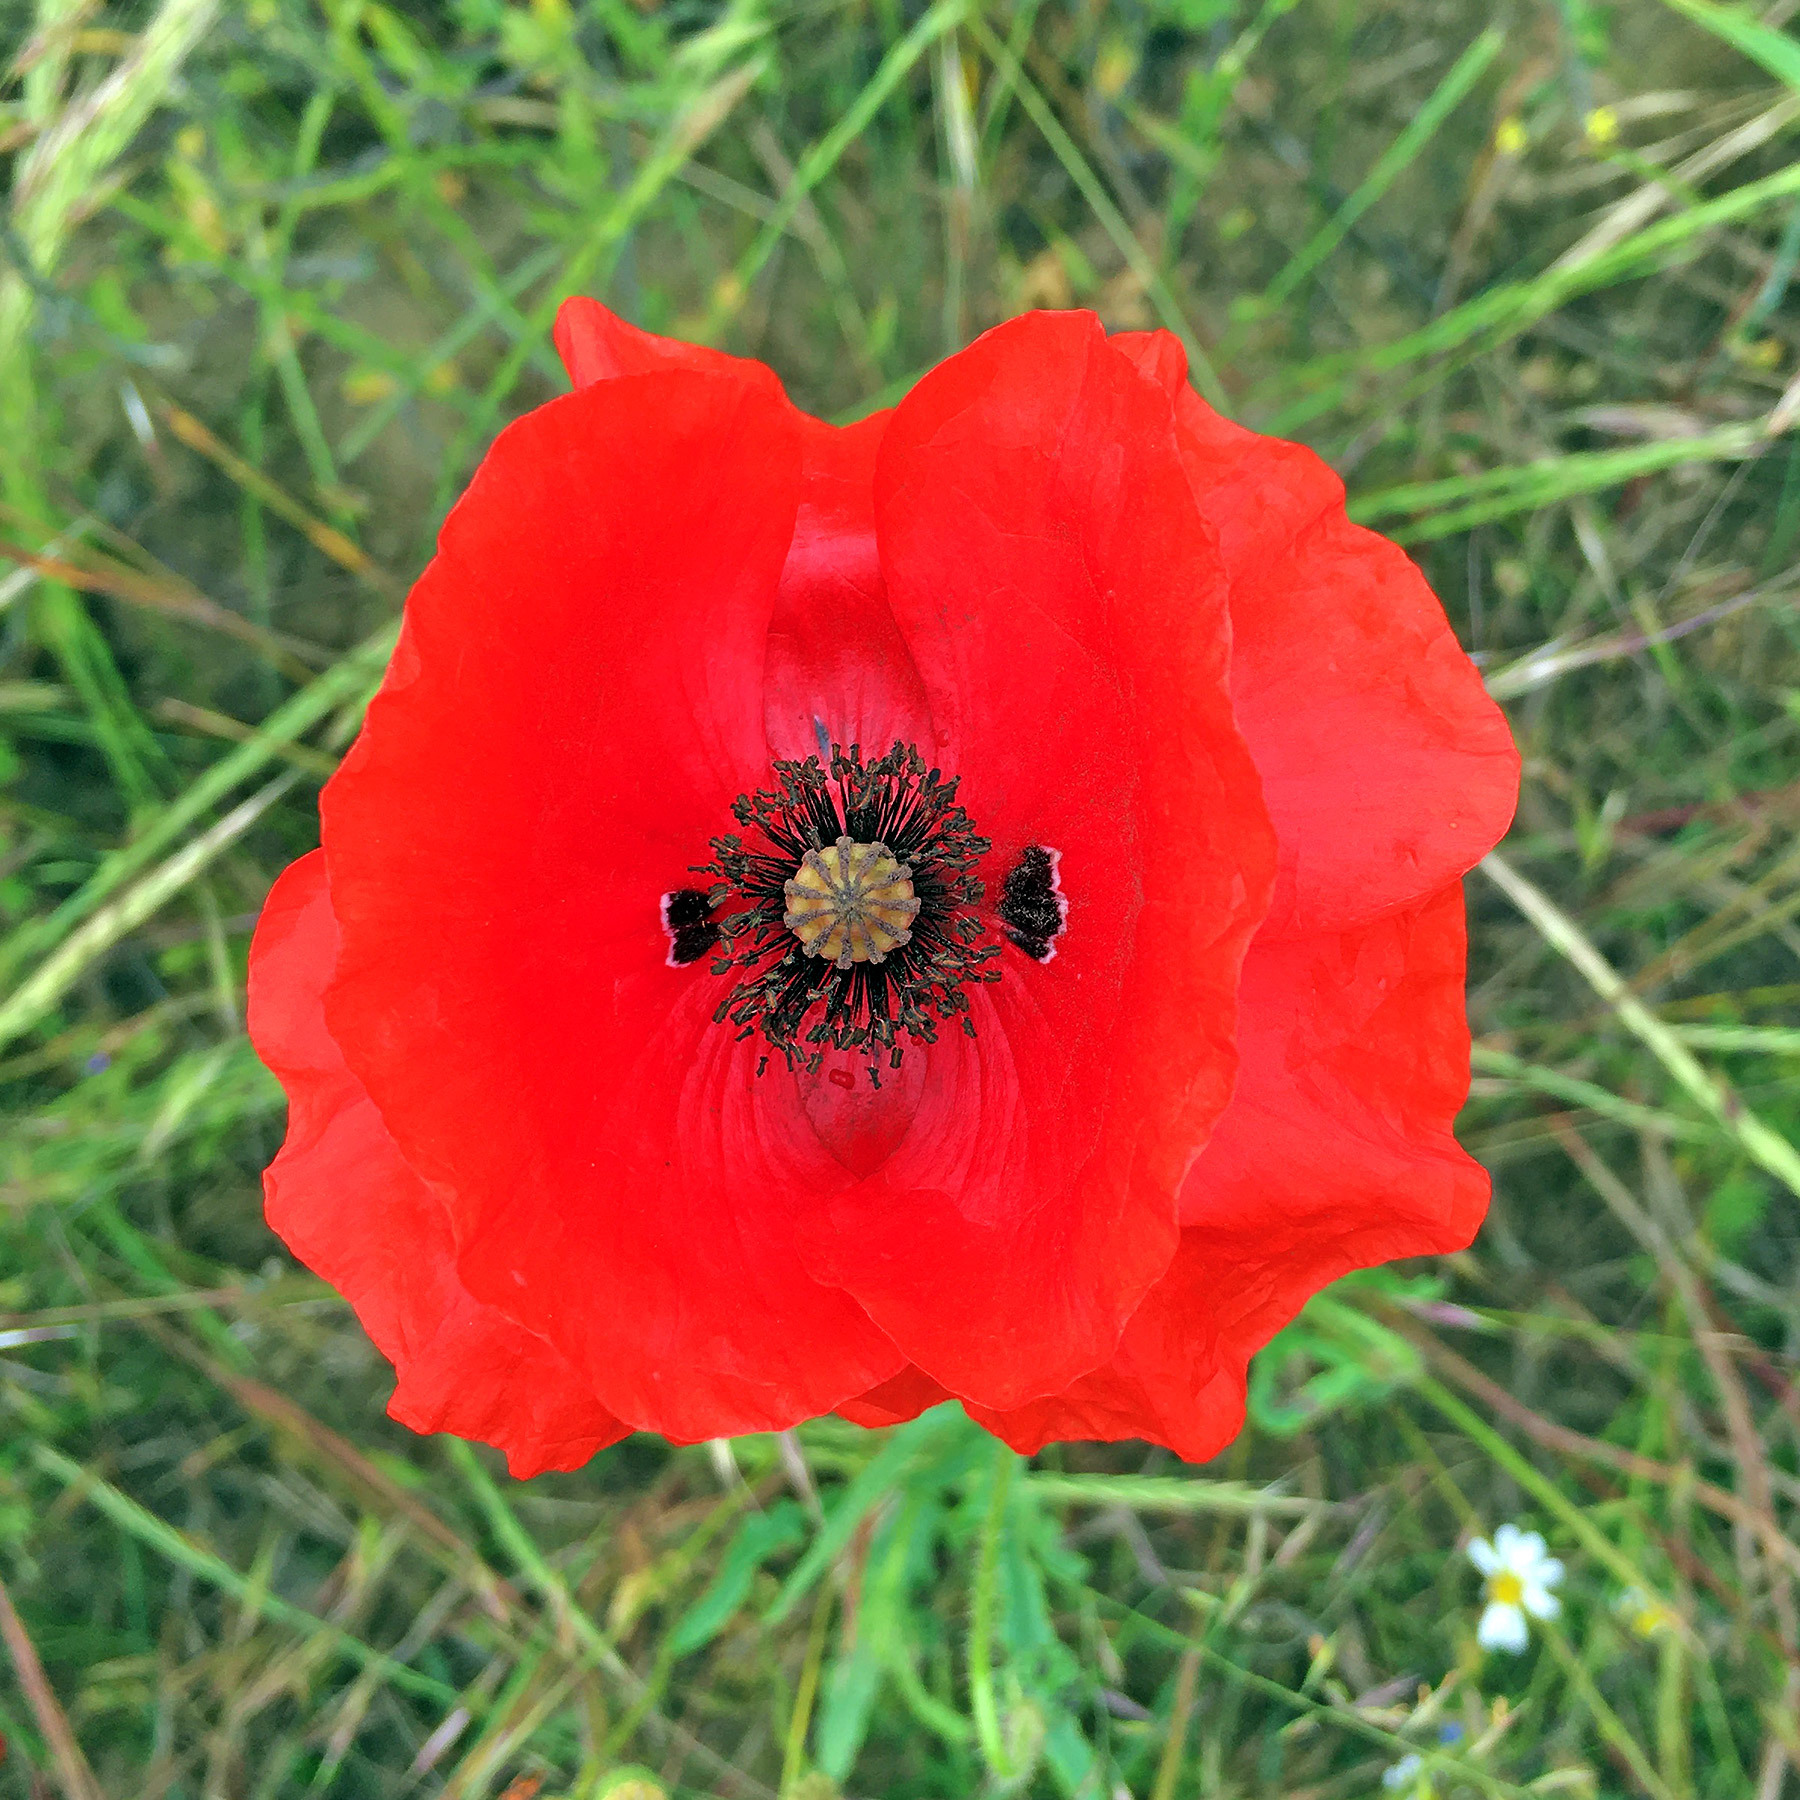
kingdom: Plantae
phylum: Tracheophyta
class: Magnoliopsida
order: Ranunculales
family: Papaveraceae
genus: Papaver
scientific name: Papaver rhoeas
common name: Corn poppy
